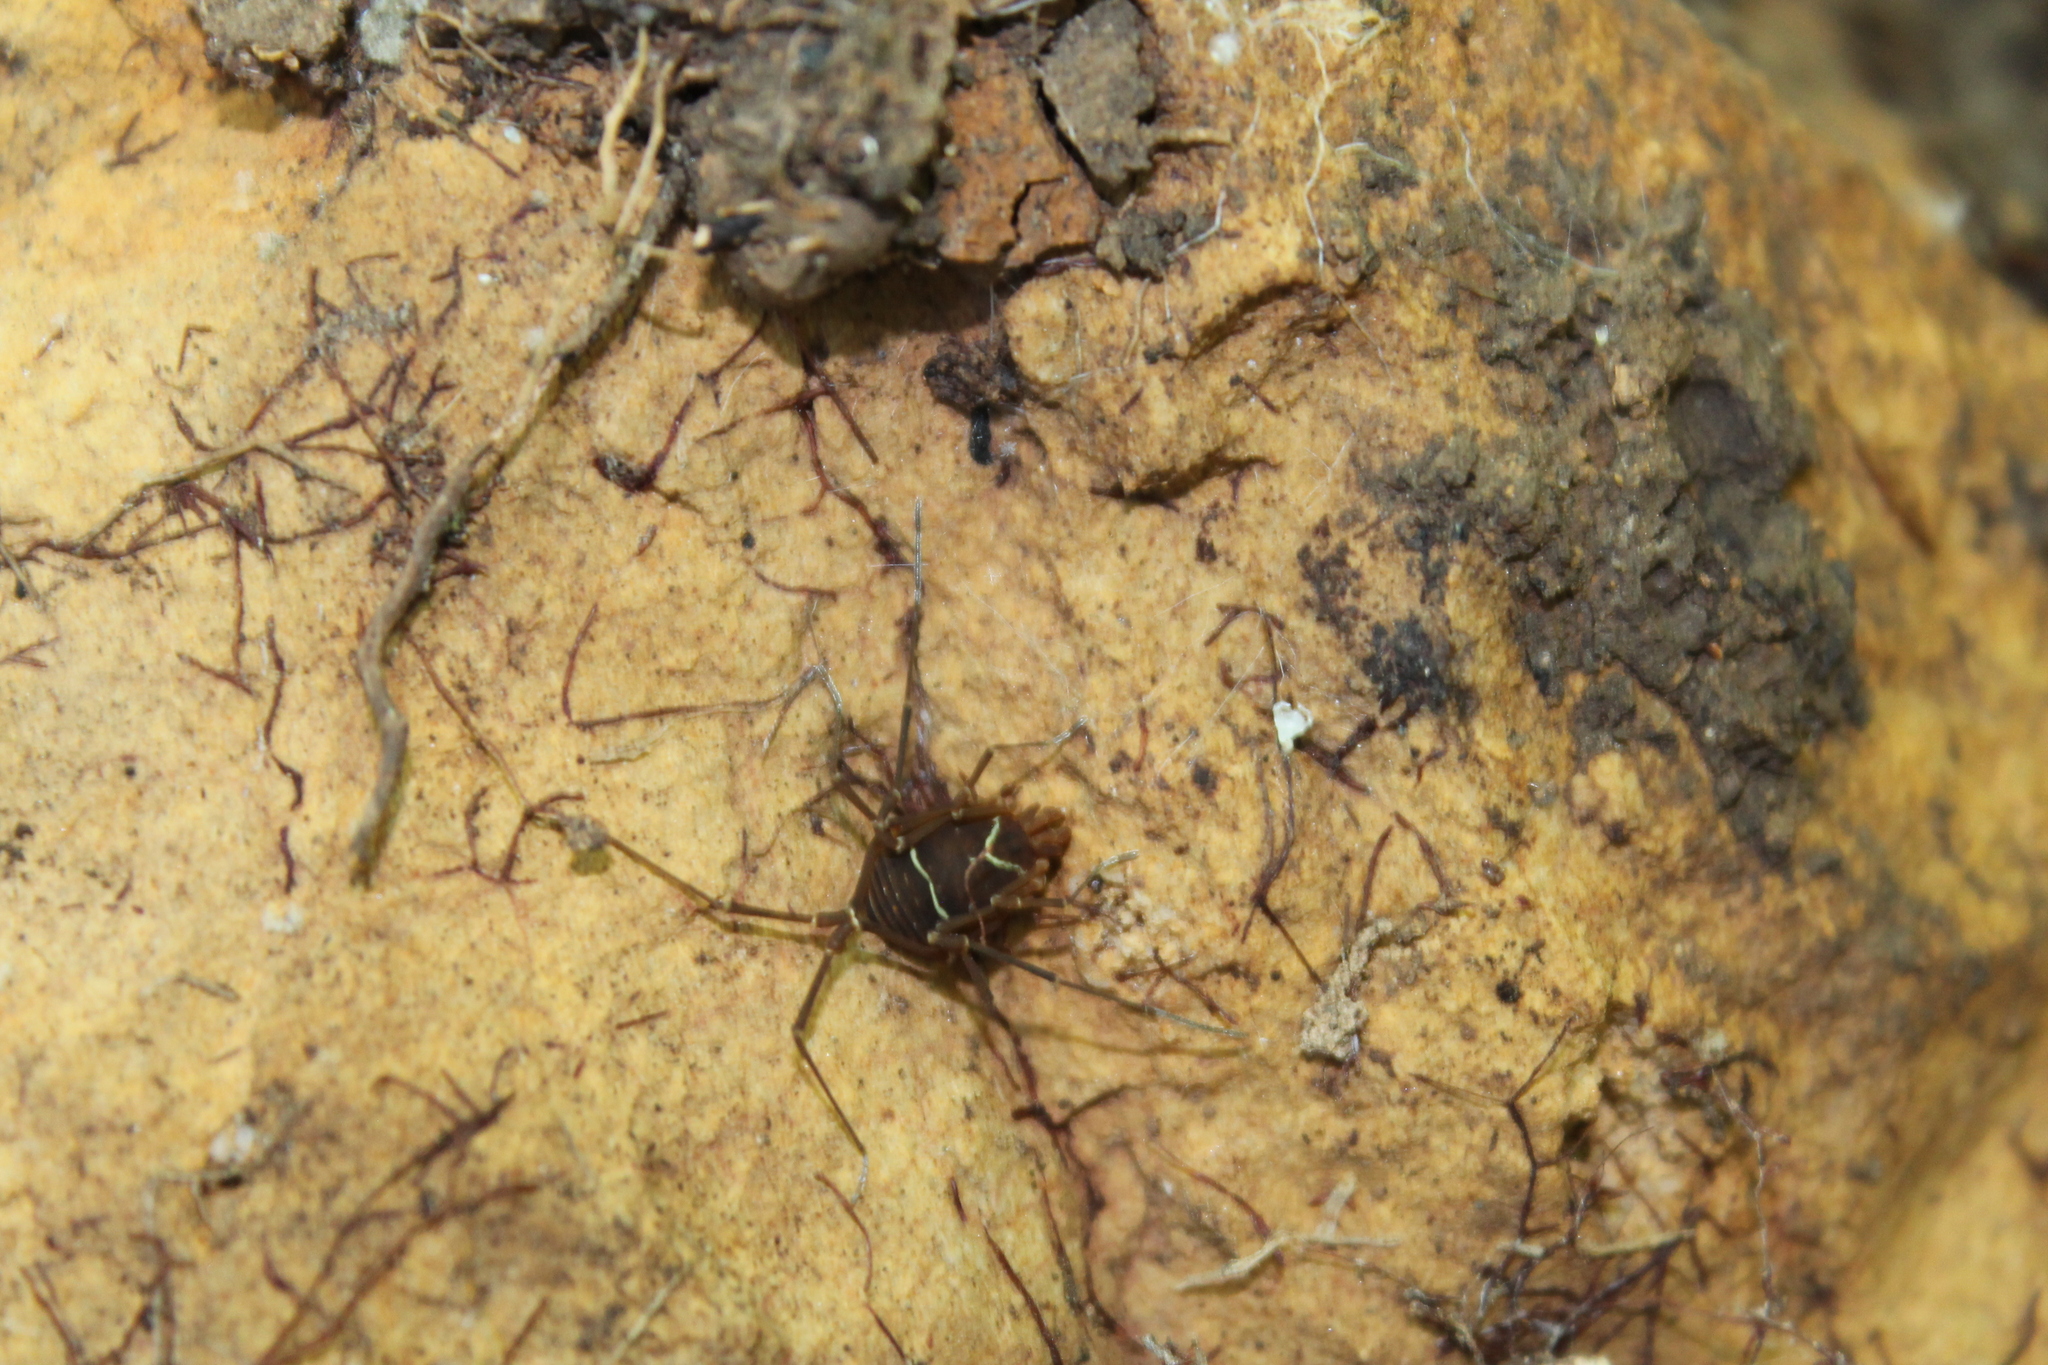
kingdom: Animalia
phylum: Arthropoda
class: Arachnida
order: Opiliones
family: Cosmetidae
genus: Libitioides
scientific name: Libitioides sayi
